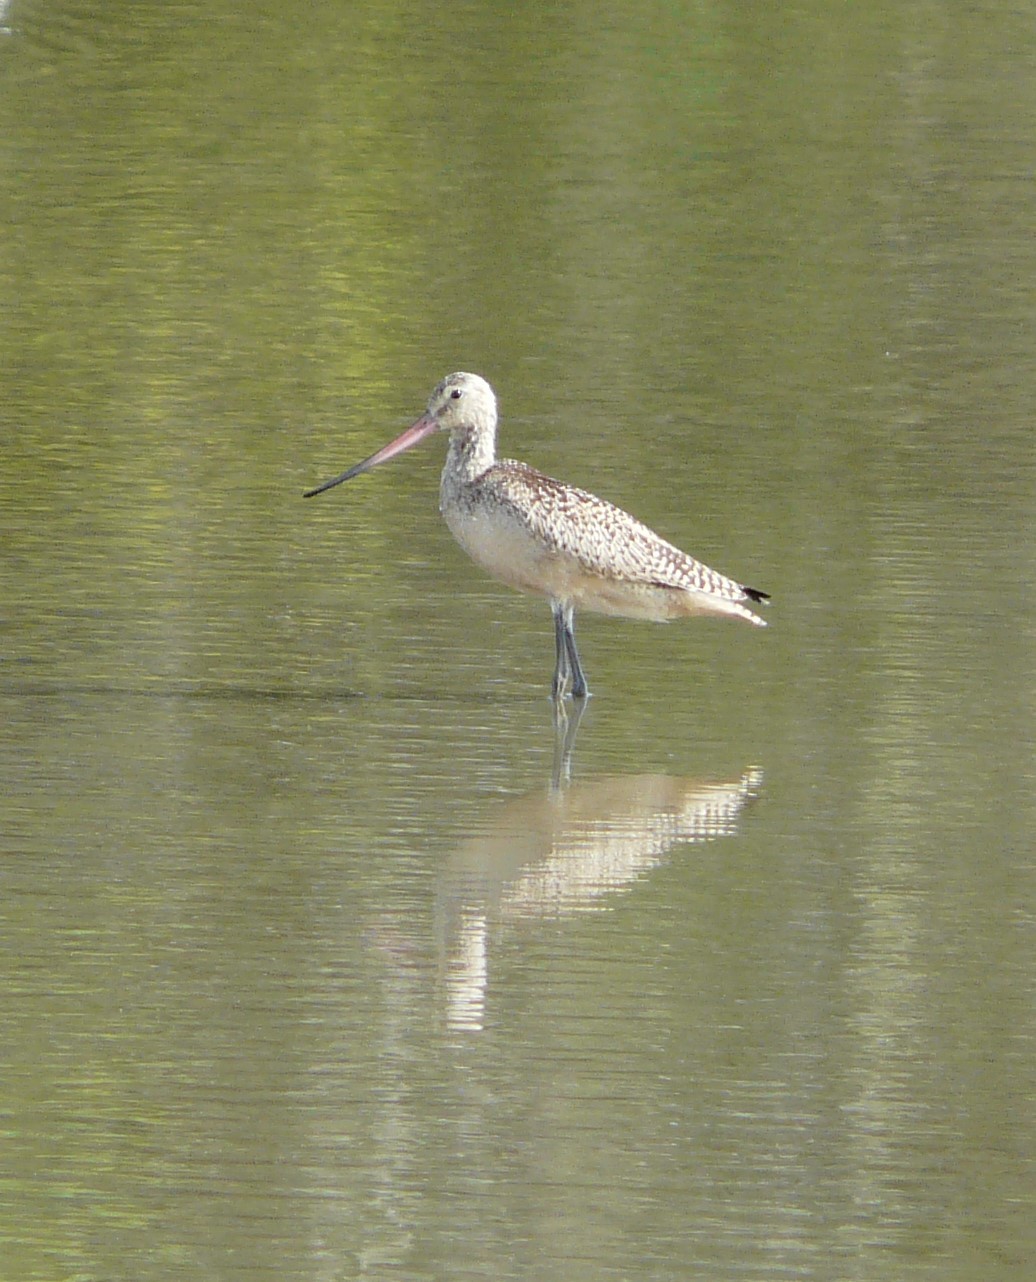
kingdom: Animalia
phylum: Chordata
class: Aves
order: Charadriiformes
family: Scolopacidae
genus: Limosa
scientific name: Limosa fedoa
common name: Marbled godwit
